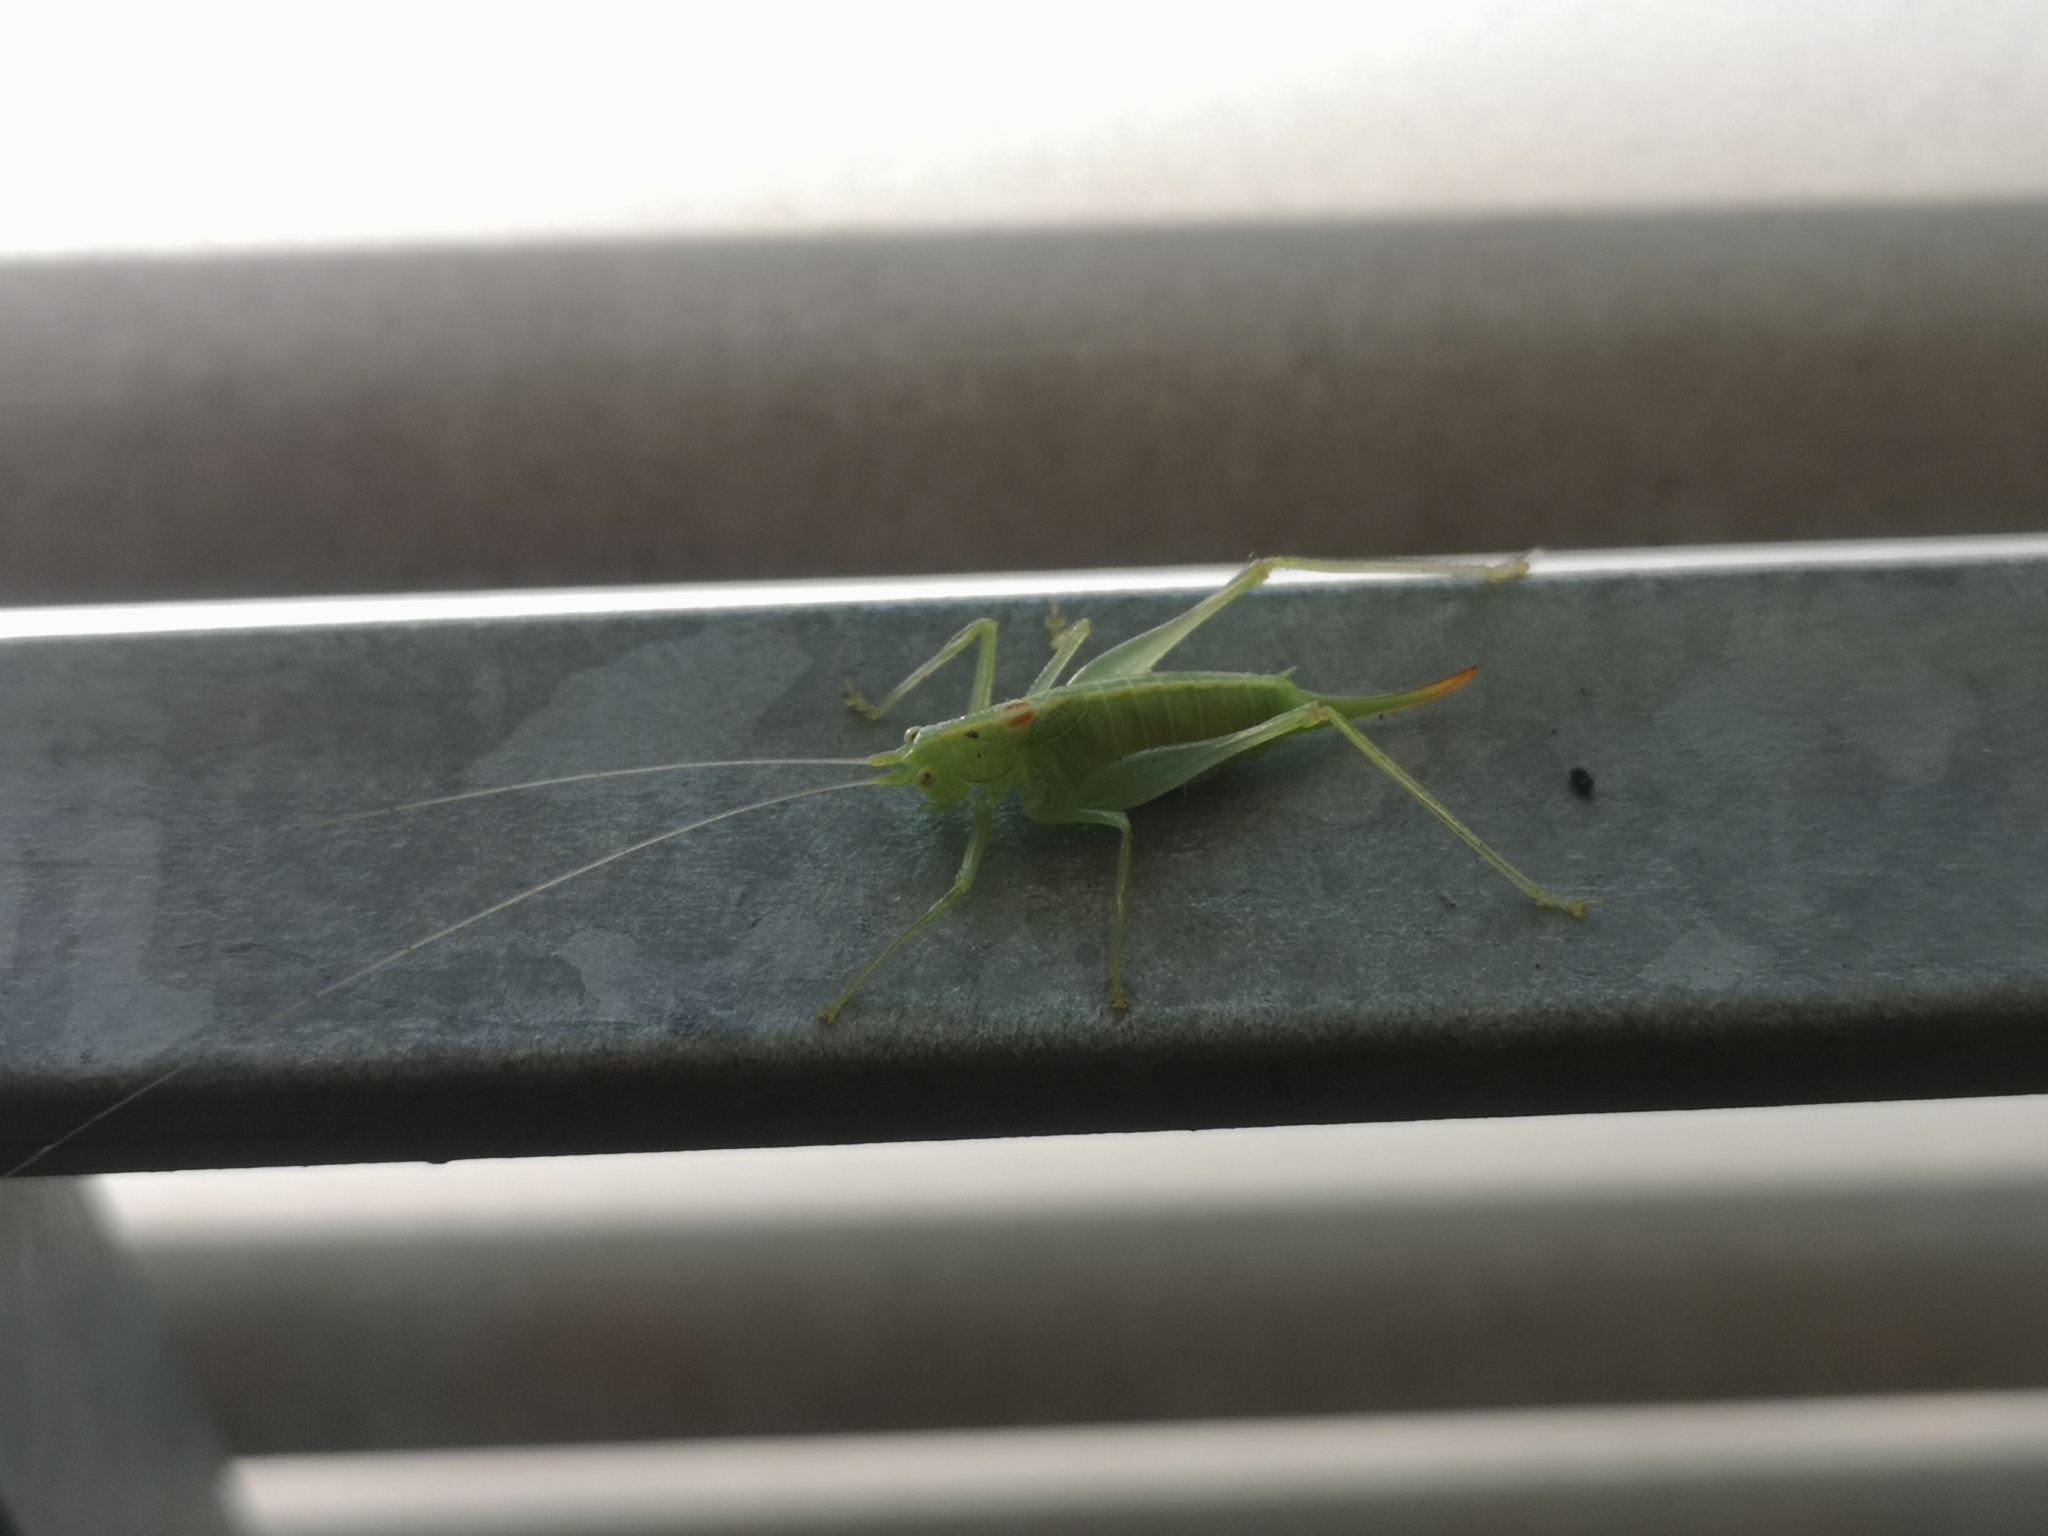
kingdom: Animalia
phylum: Arthropoda
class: Insecta
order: Orthoptera
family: Tettigoniidae
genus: Meconema
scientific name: Meconema meridionale
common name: Southern oak bush-cricket
